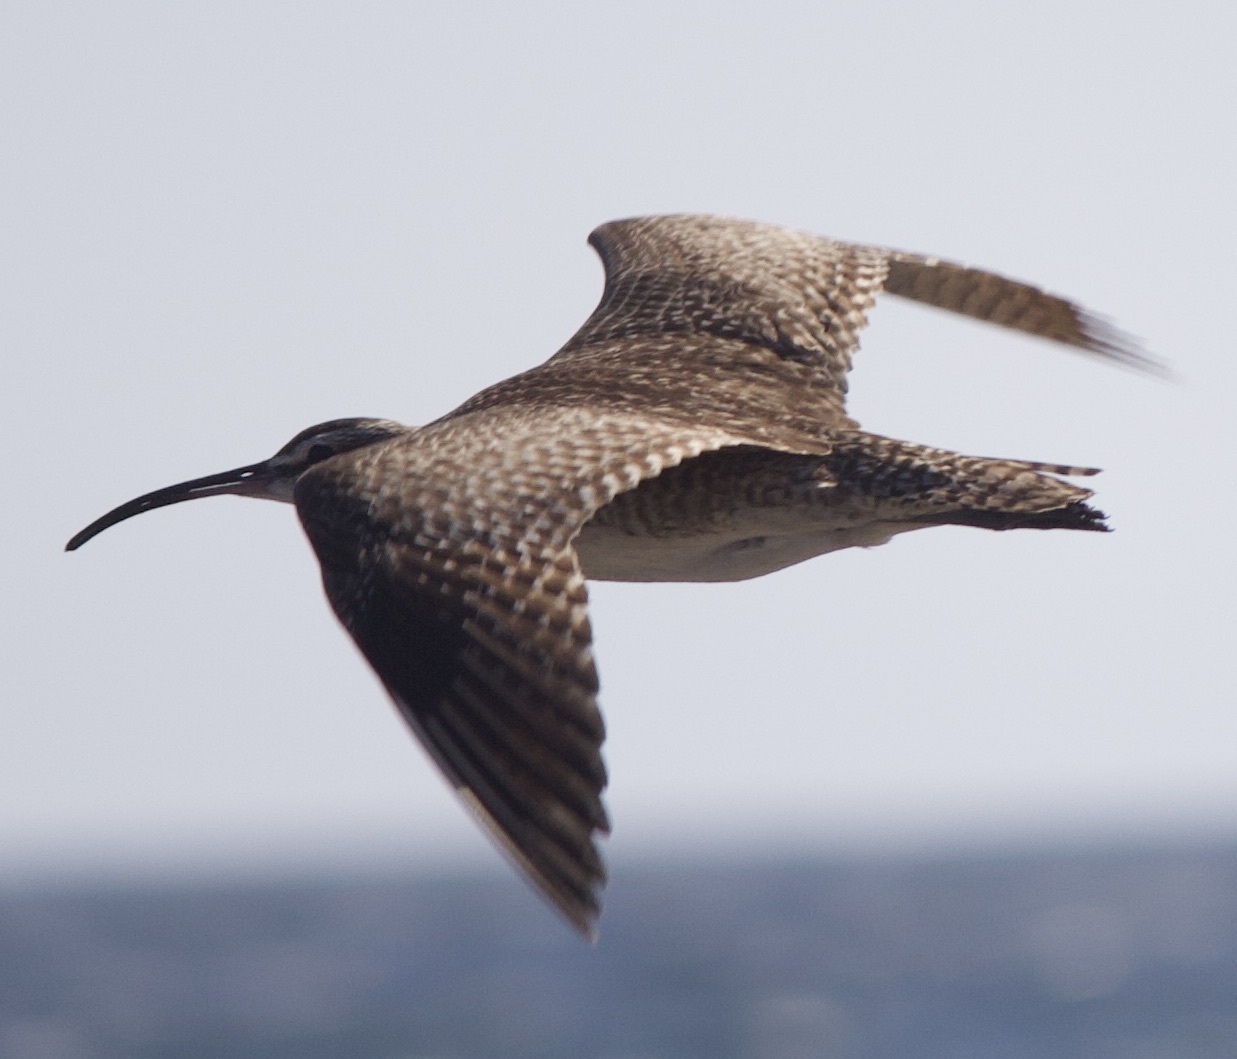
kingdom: Animalia
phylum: Chordata
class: Aves
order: Charadriiformes
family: Scolopacidae
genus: Numenius
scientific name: Numenius phaeopus
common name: Whimbrel
